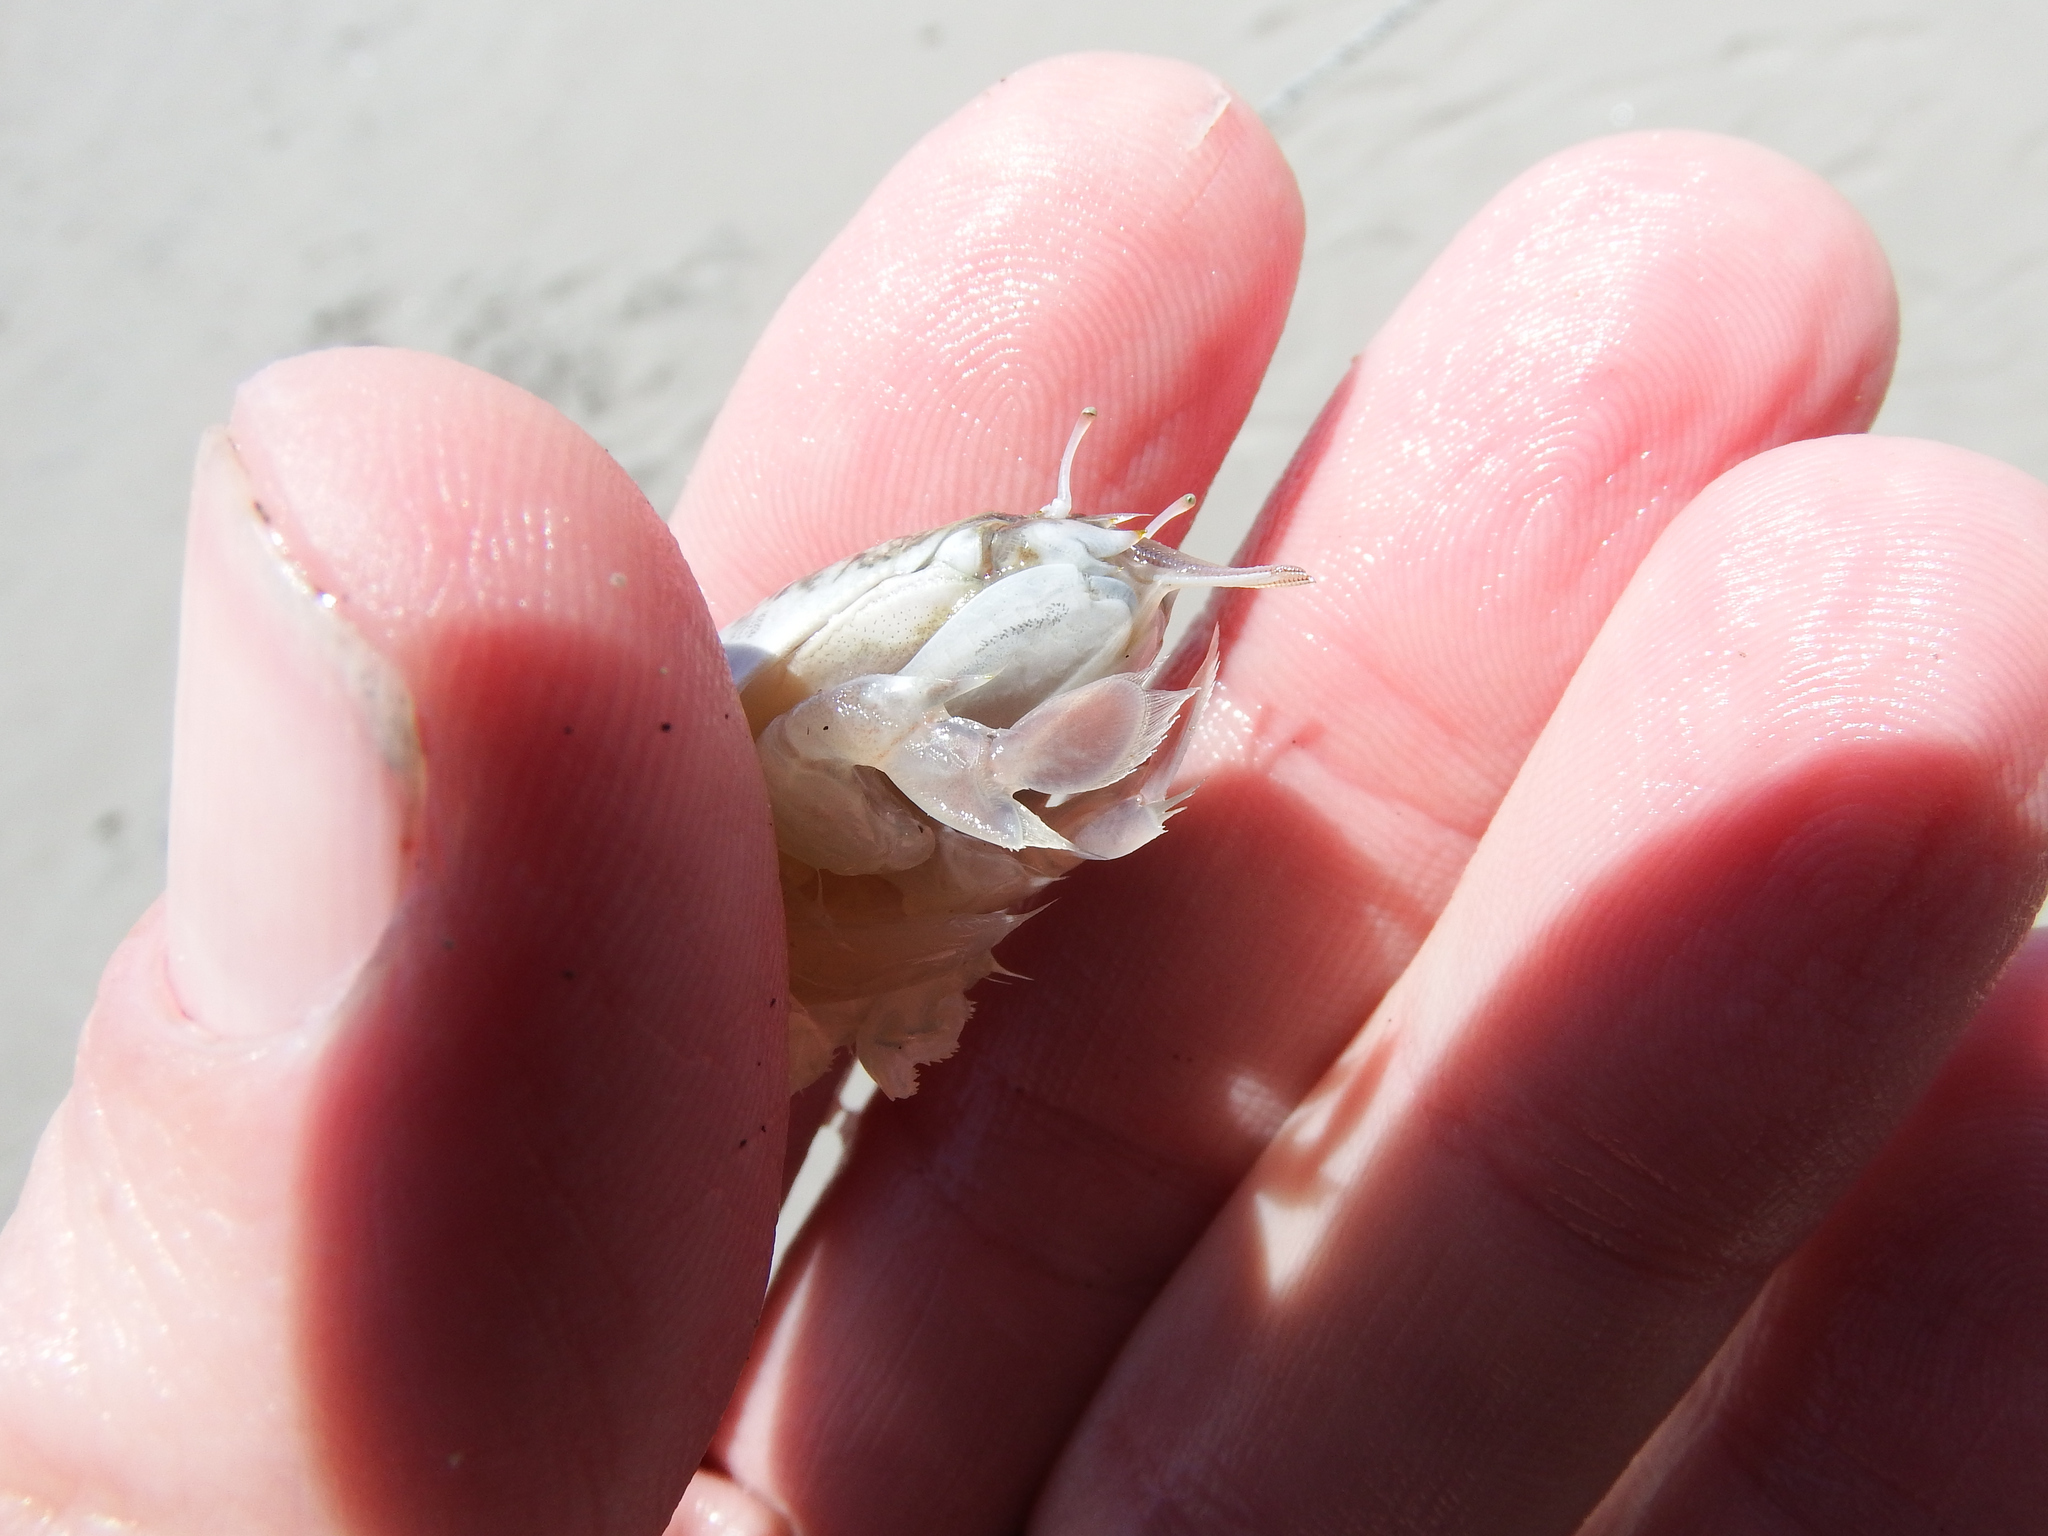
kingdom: Animalia
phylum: Arthropoda
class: Malacostraca
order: Decapoda
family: Hippidae
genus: Emerita
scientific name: Emerita analoga
